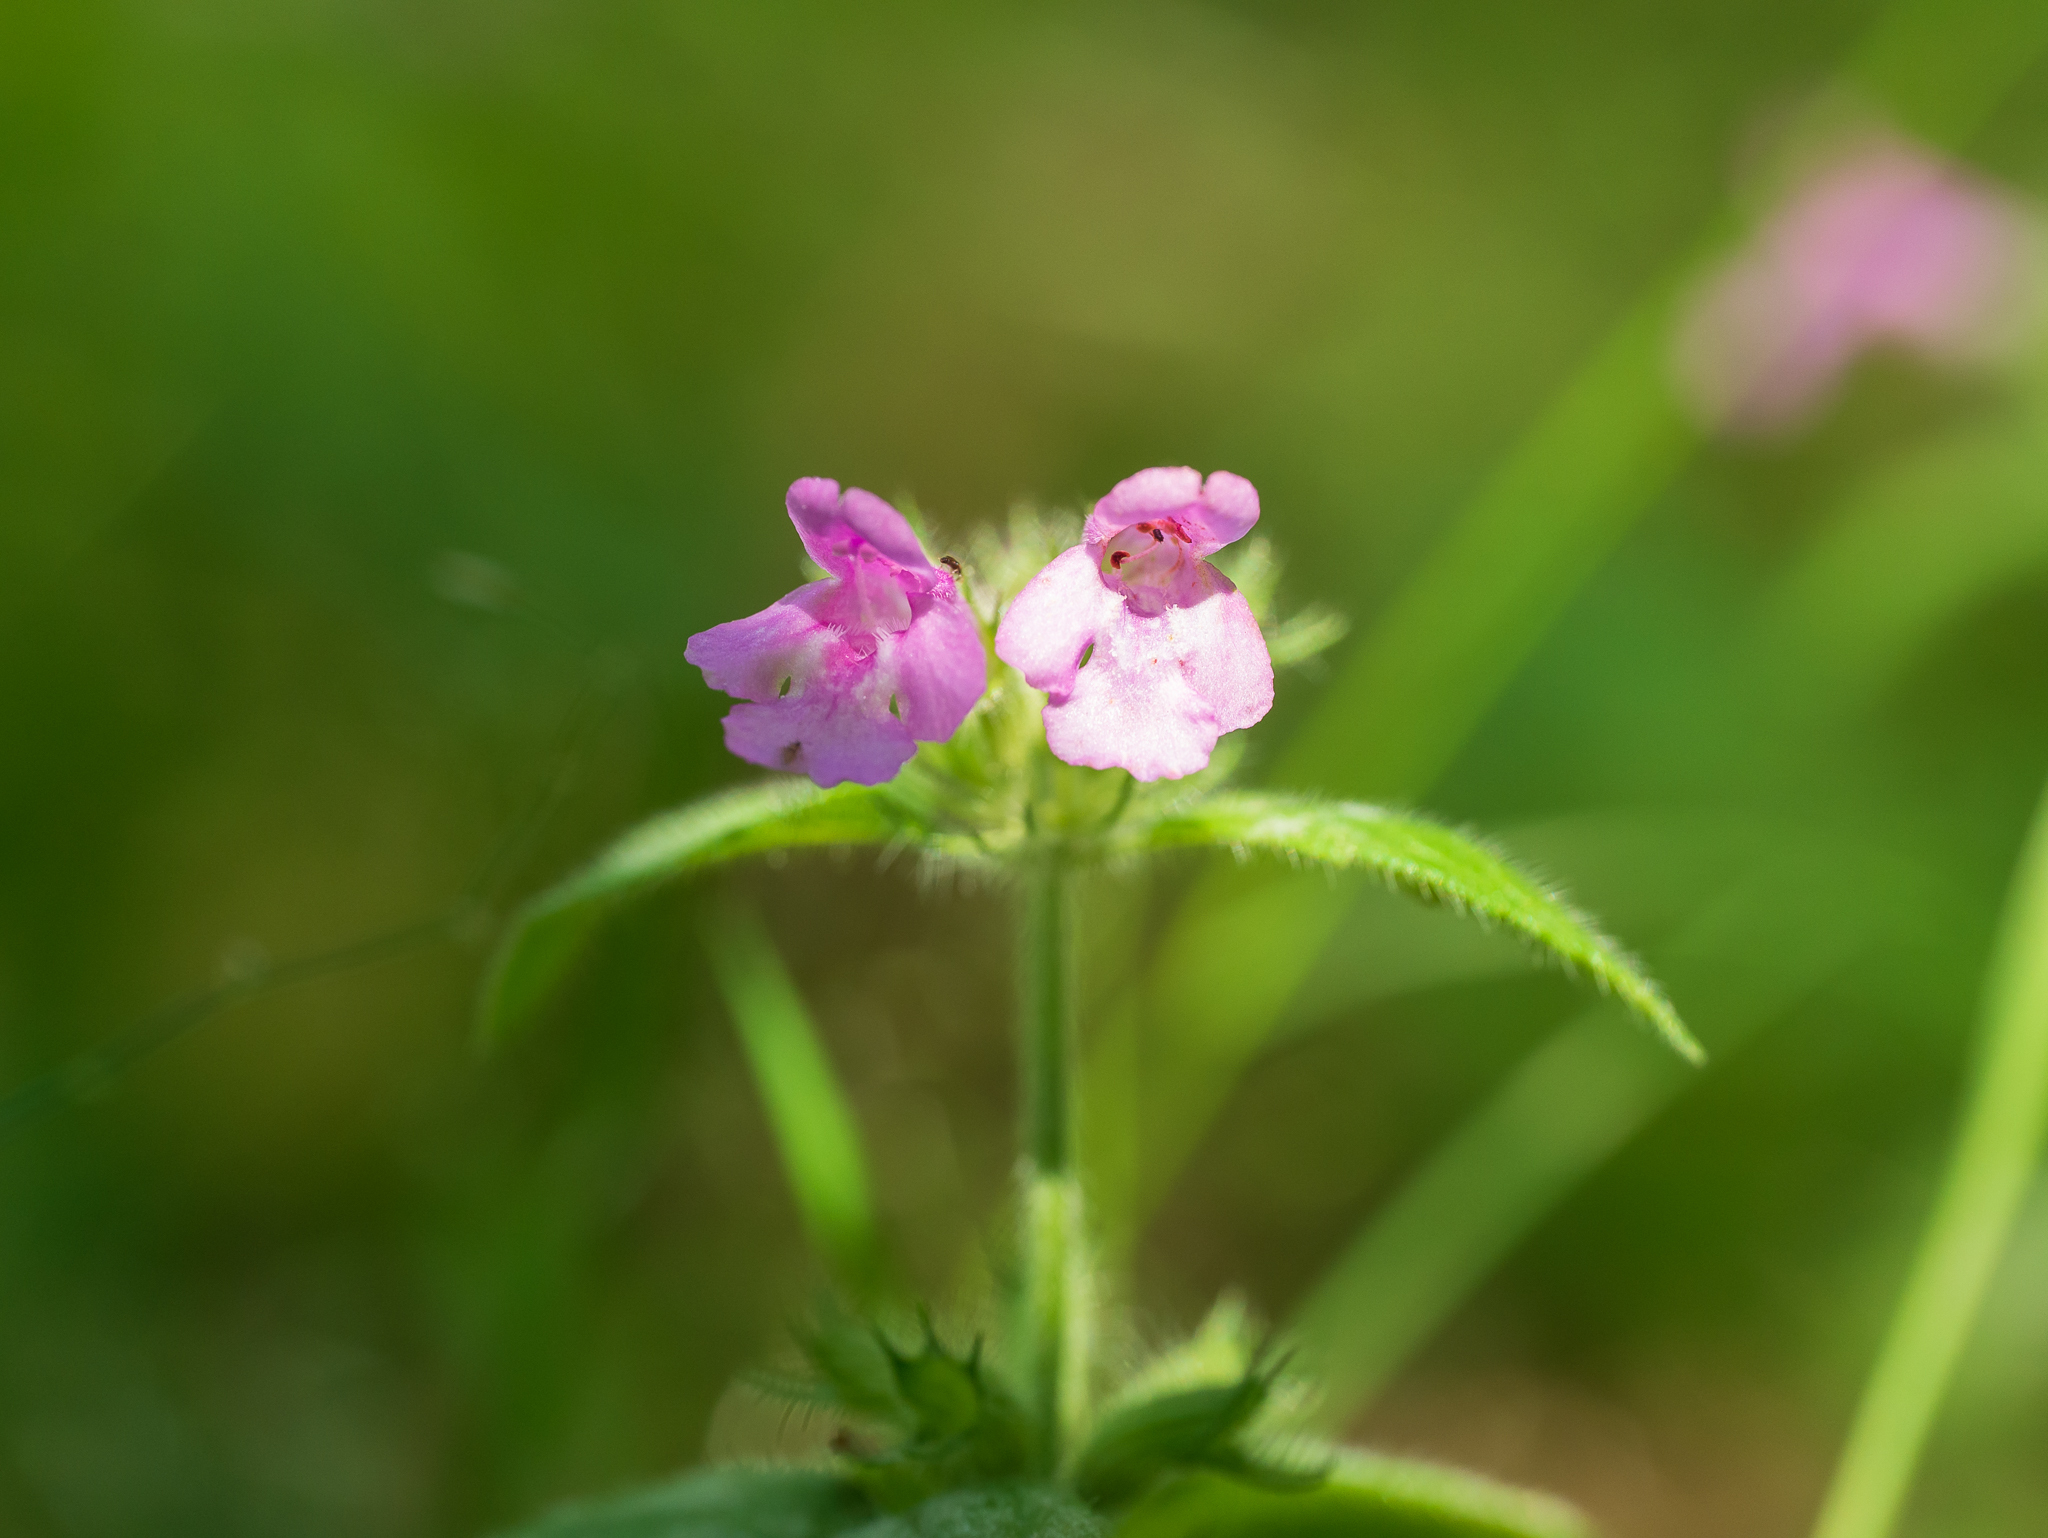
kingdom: Plantae
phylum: Tracheophyta
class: Magnoliopsida
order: Lamiales
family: Lamiaceae
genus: Clinopodium
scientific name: Clinopodium vulgare
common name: Wild basil
